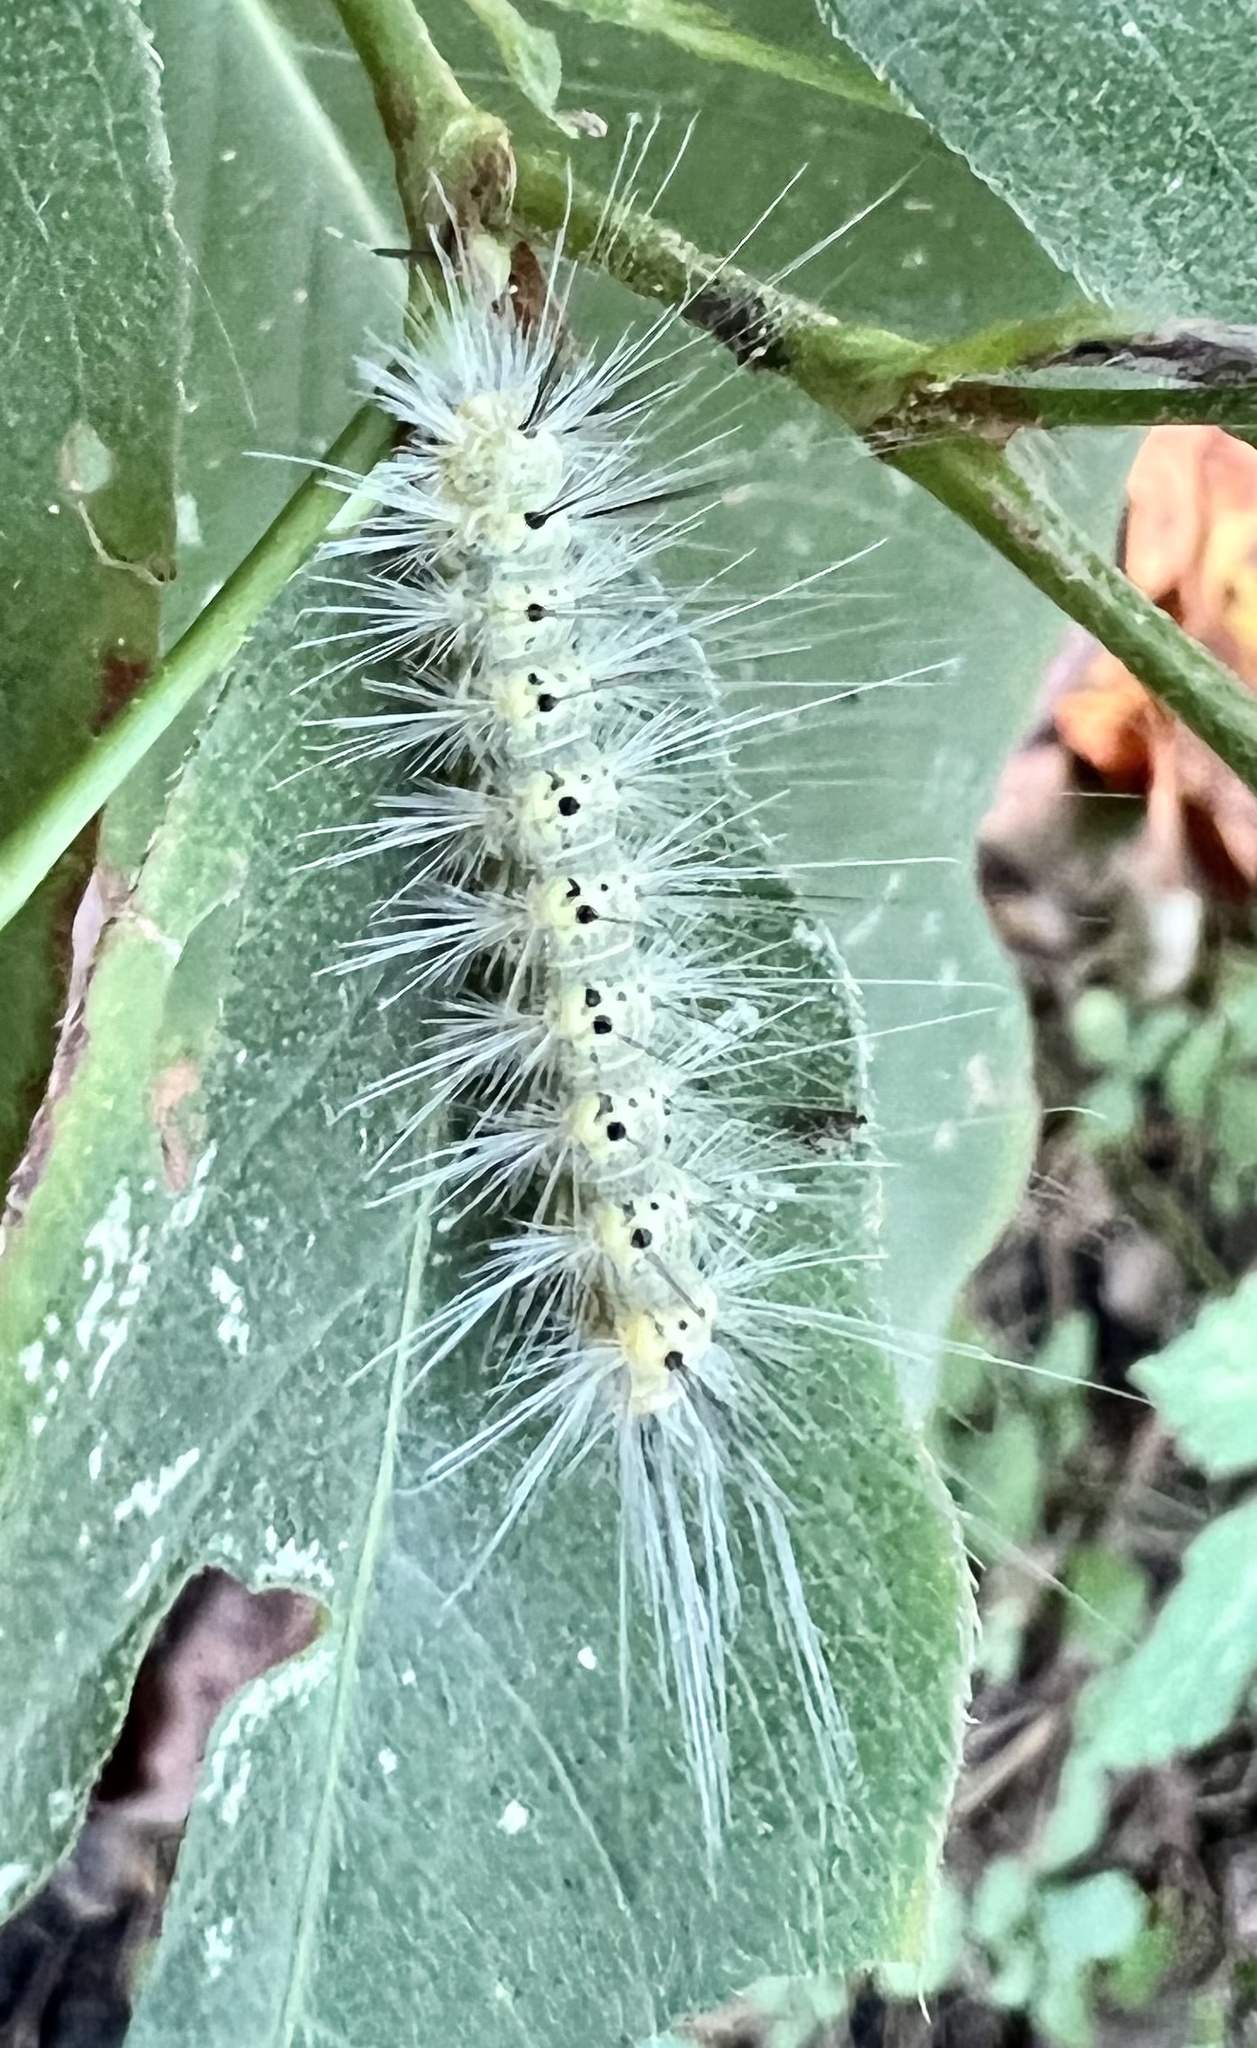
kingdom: Animalia
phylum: Arthropoda
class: Insecta
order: Lepidoptera
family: Erebidae
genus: Hyphantria
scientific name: Hyphantria cunea
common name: American white moth
